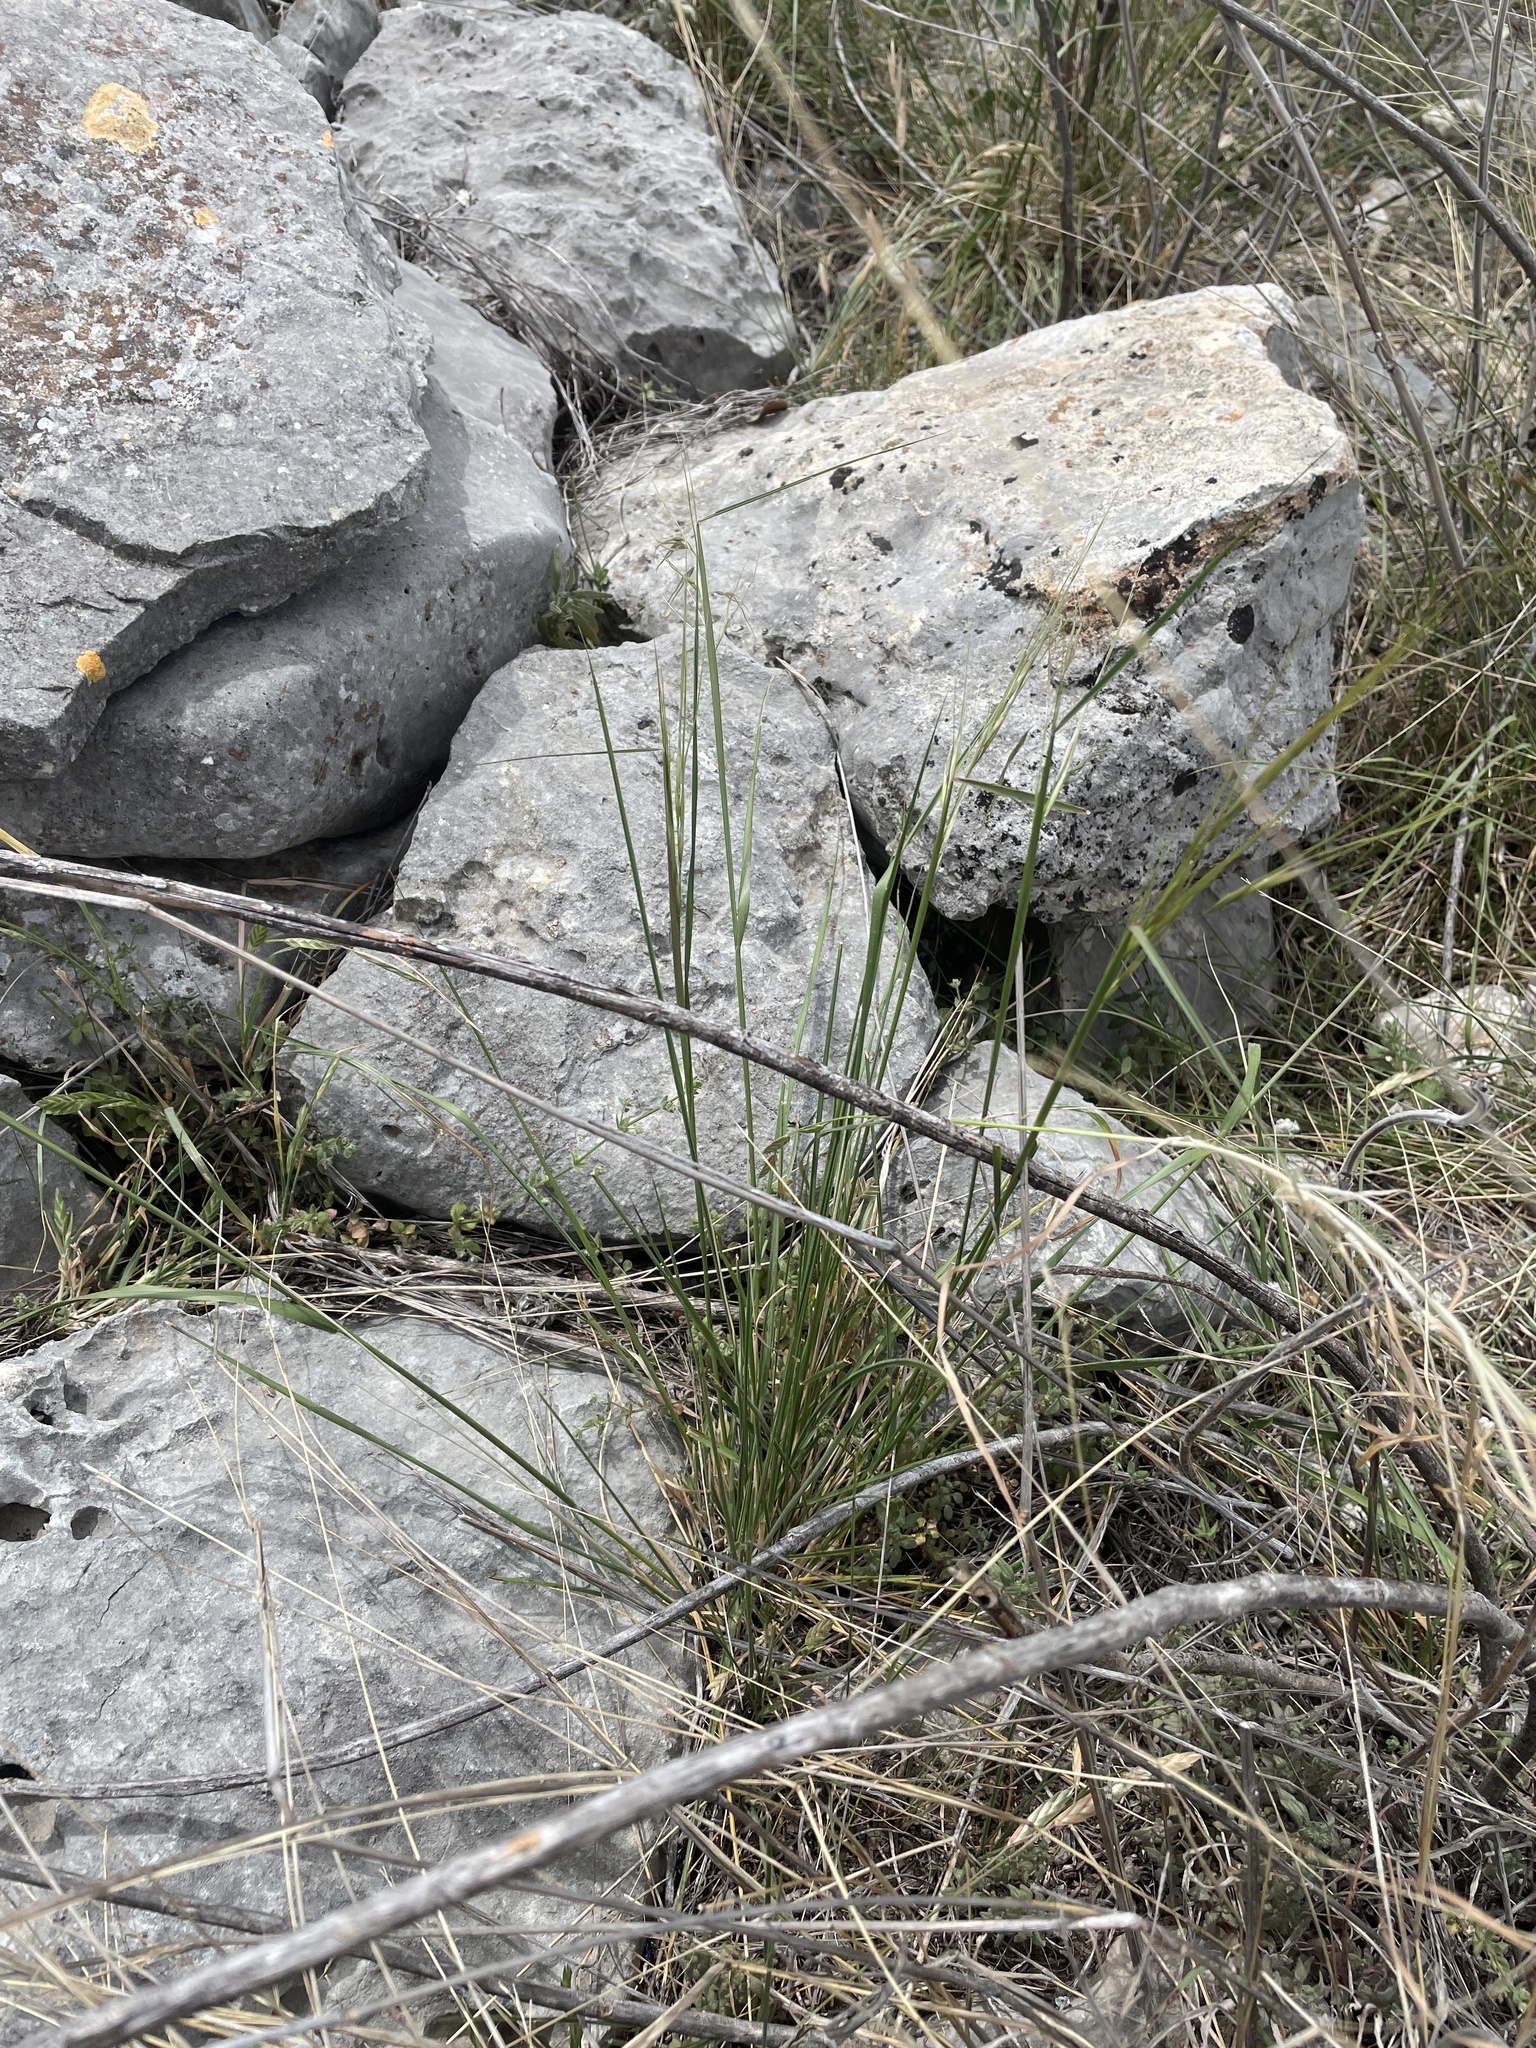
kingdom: Plantae
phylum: Tracheophyta
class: Liliopsida
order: Poales
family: Poaceae
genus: Nassella
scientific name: Nassella leucotricha
